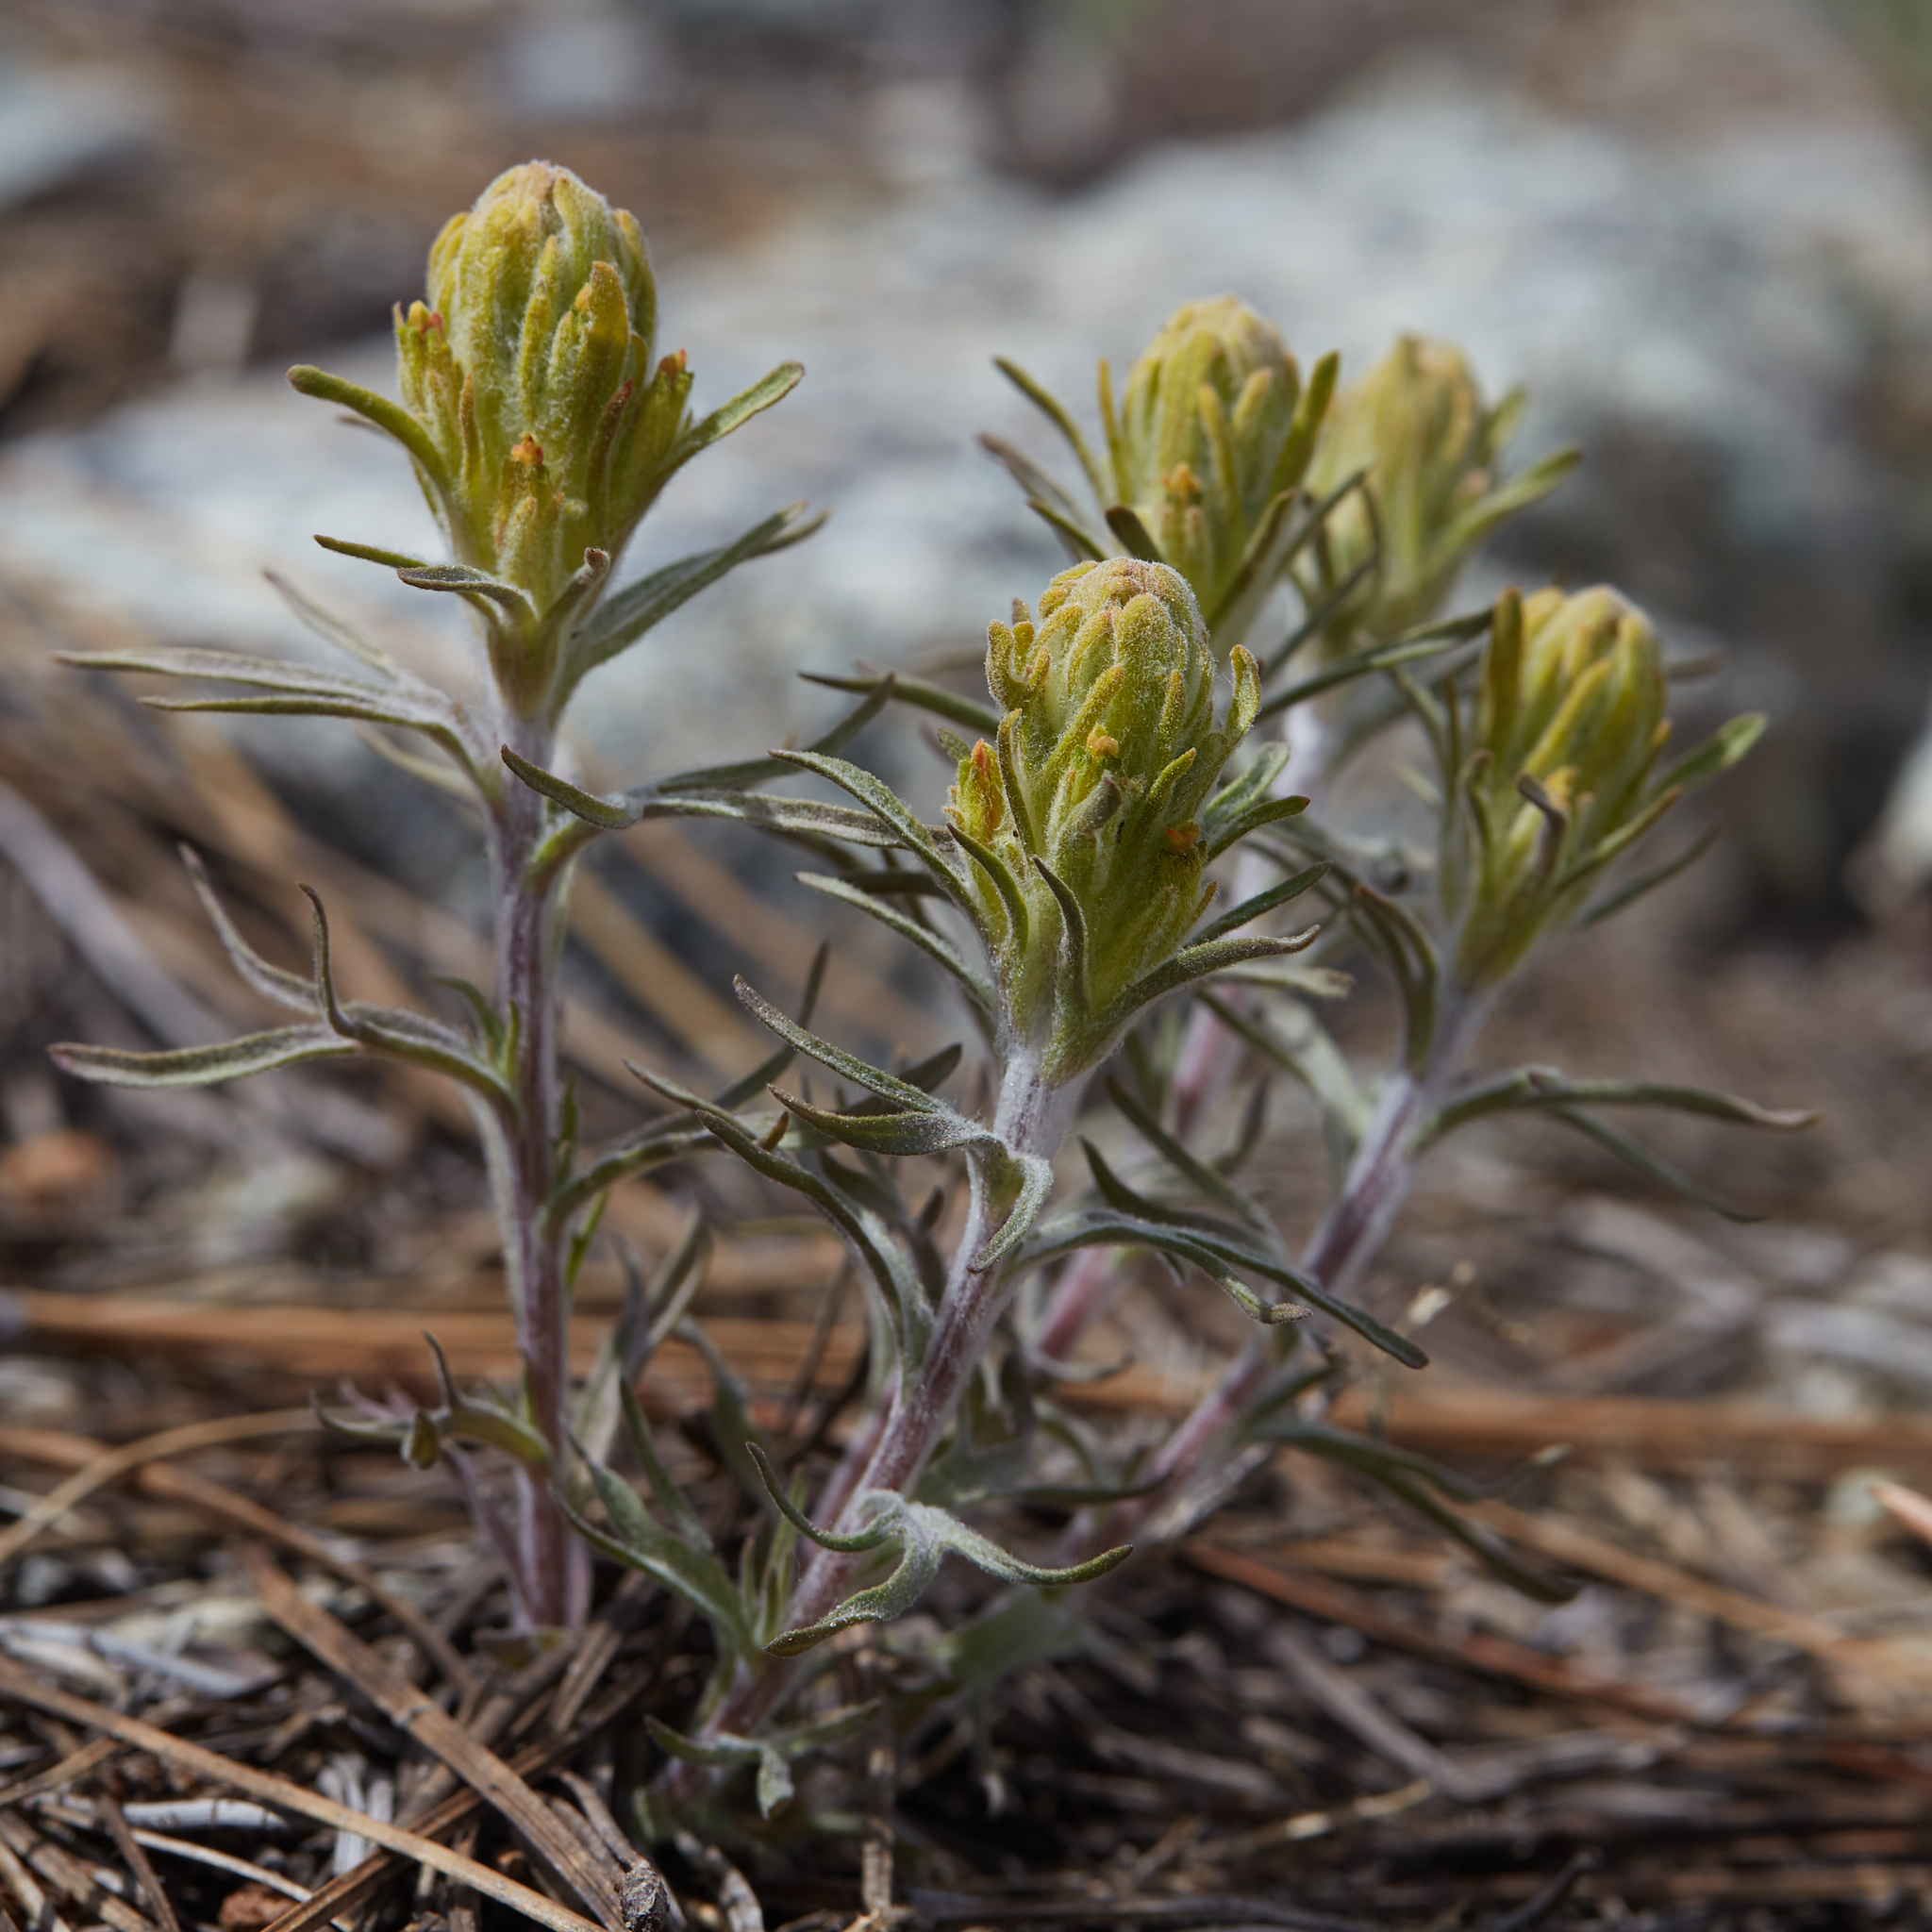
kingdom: Plantae
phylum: Tracheophyta
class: Magnoliopsida
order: Lamiales
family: Orobanchaceae
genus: Castilleja
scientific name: Castilleja arachnoidea
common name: Cobwebby indian paintbrush
